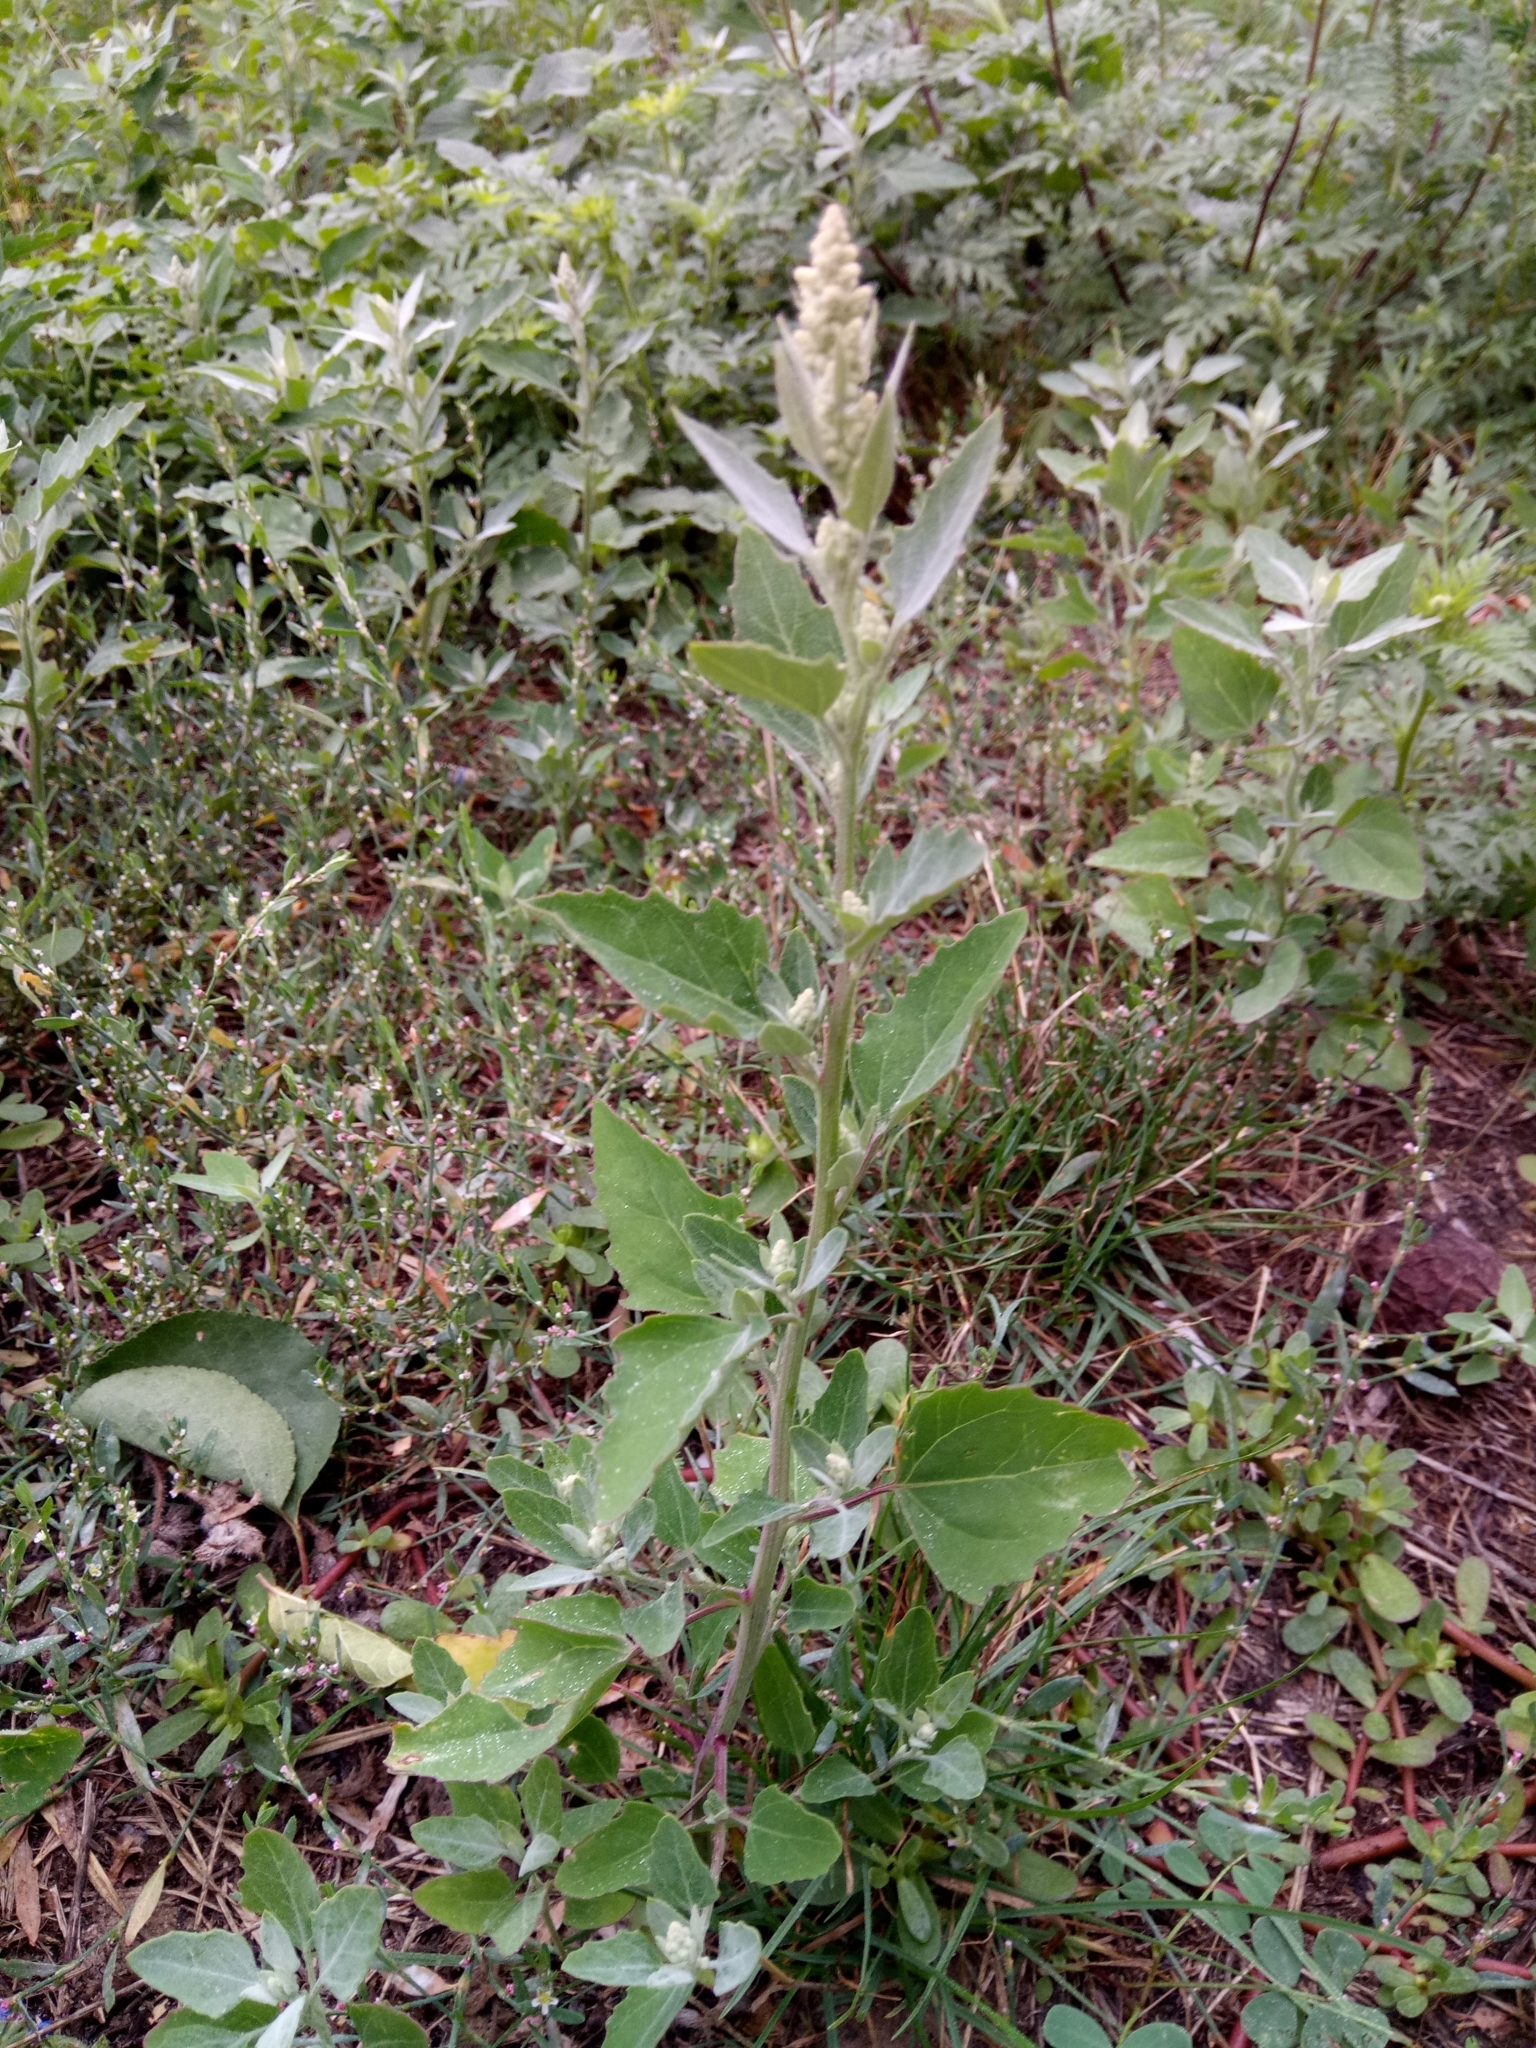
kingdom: Plantae
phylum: Tracheophyta
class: Magnoliopsida
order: Caryophyllales
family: Amaranthaceae
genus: Chenopodium
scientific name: Chenopodium album
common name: Fat-hen
